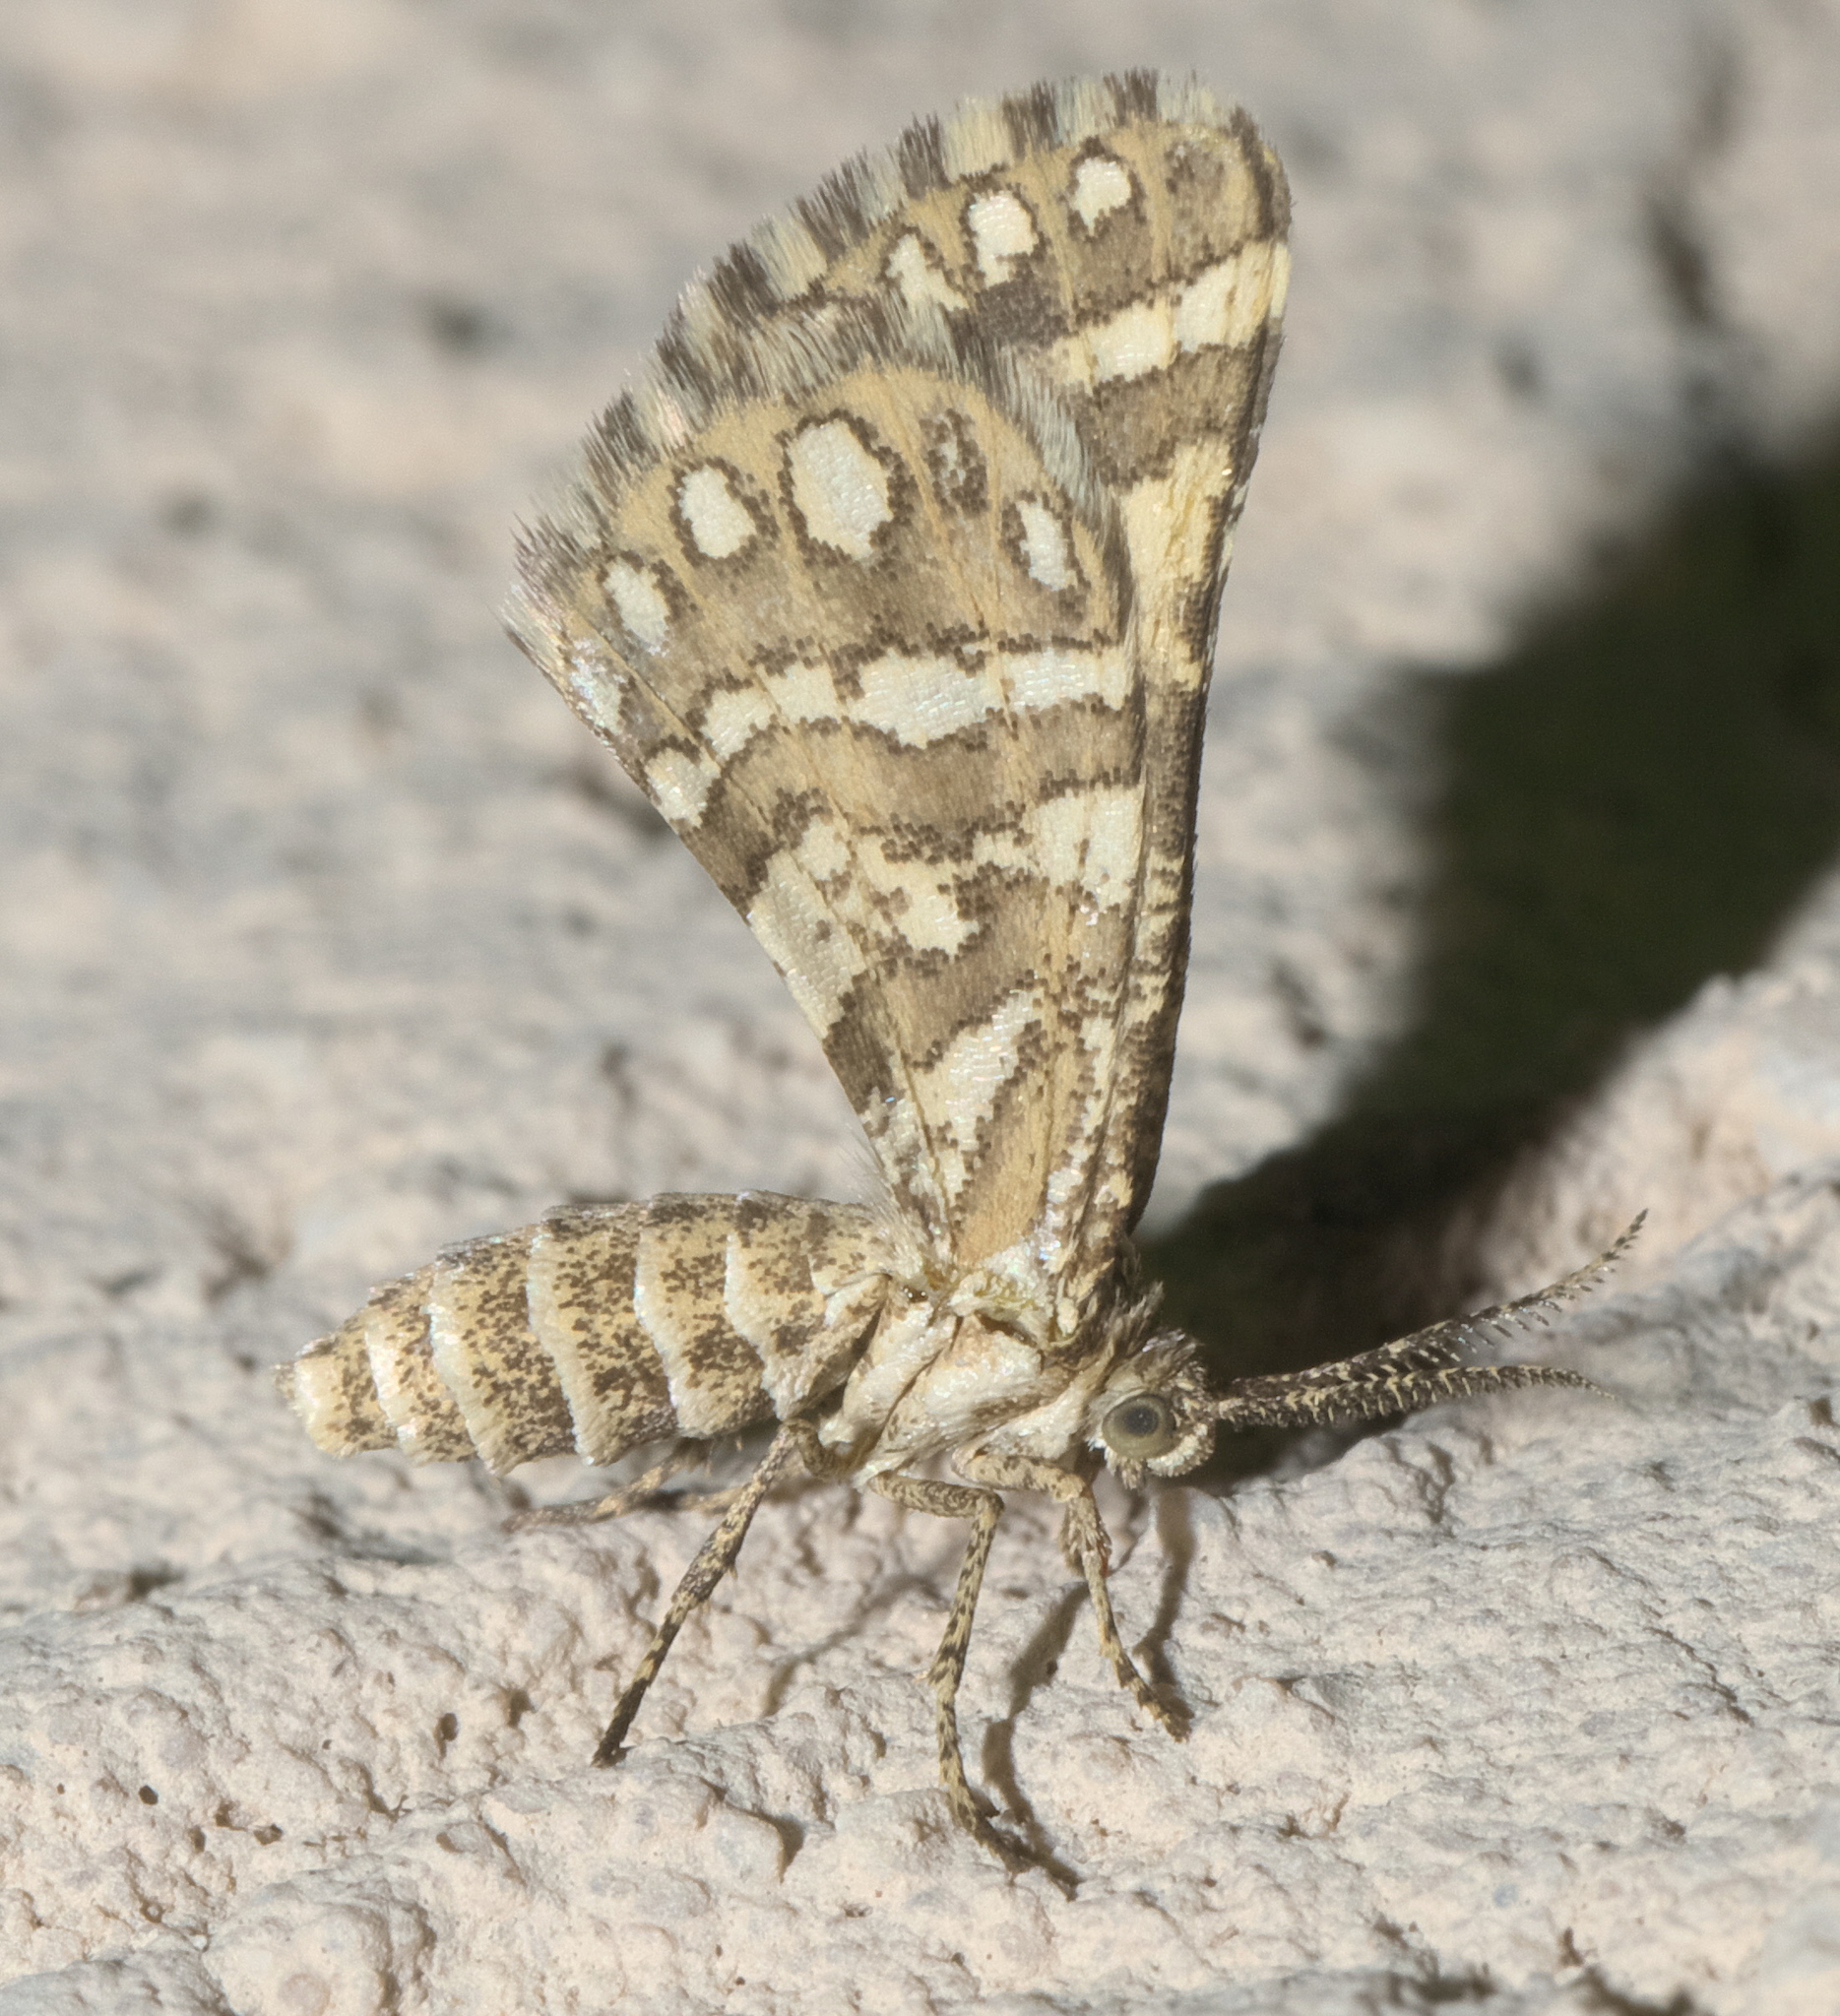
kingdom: Animalia
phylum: Arthropoda
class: Insecta
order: Lepidoptera
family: Geometridae
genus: Narraga
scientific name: Narraga fimetaria
